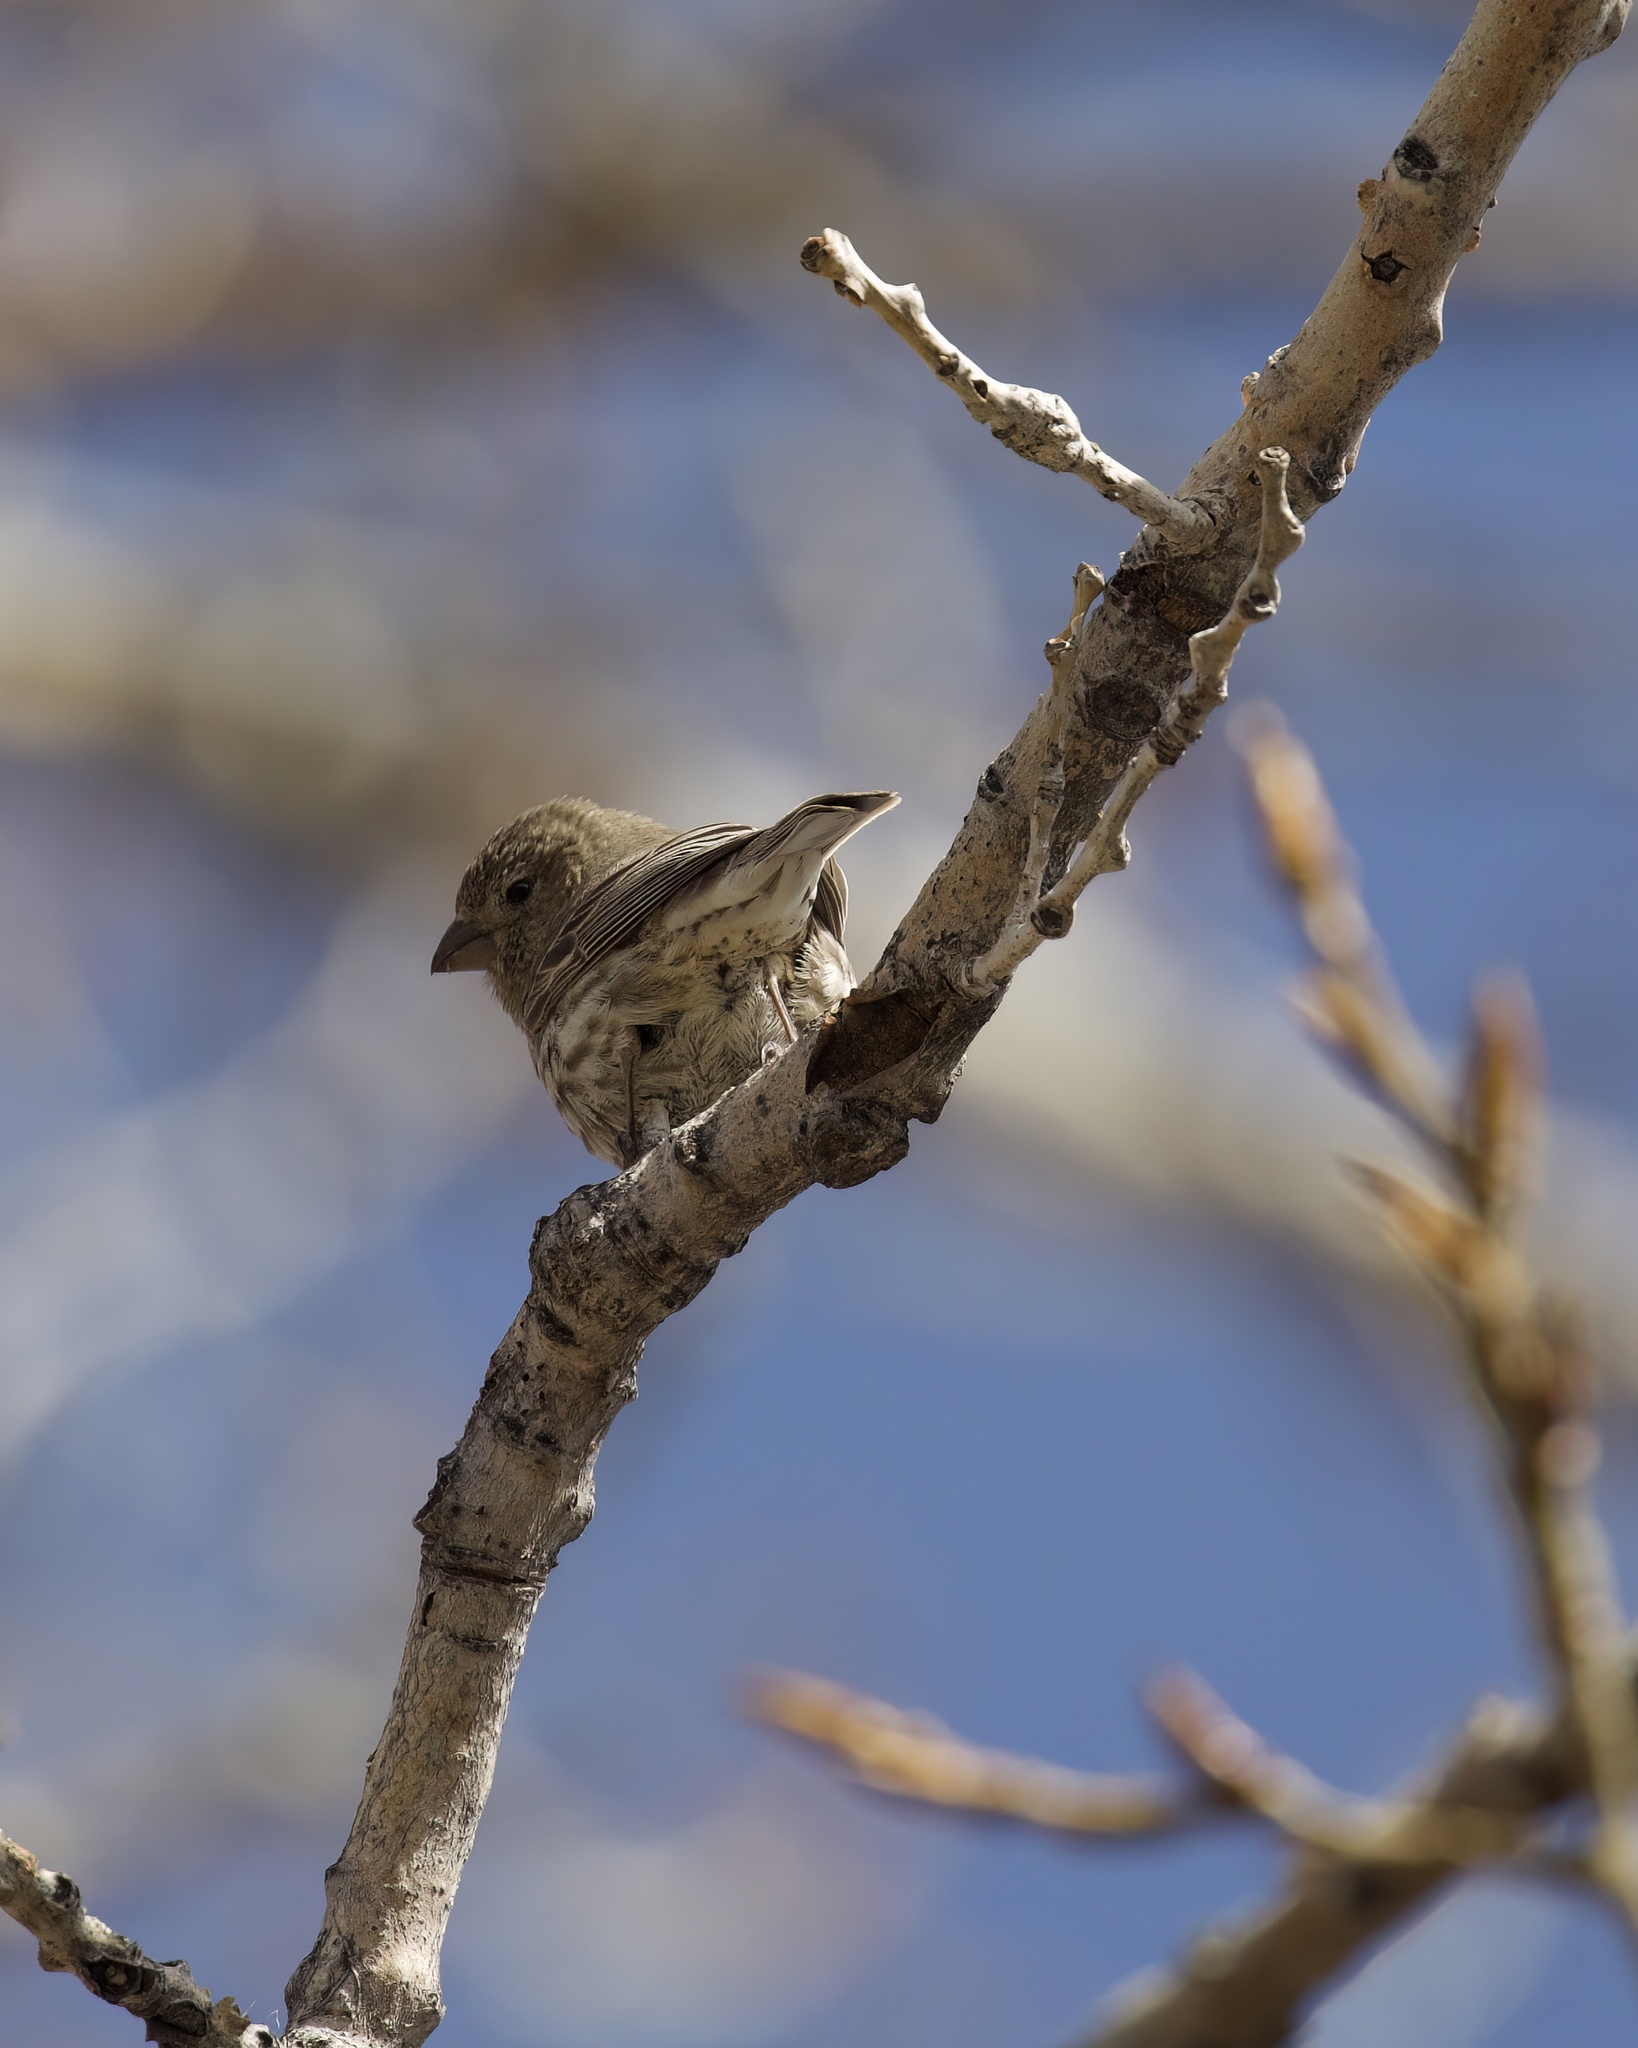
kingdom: Animalia
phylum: Chordata
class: Aves
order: Passeriformes
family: Fringillidae
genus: Haemorhous
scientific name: Haemorhous mexicanus
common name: House finch
